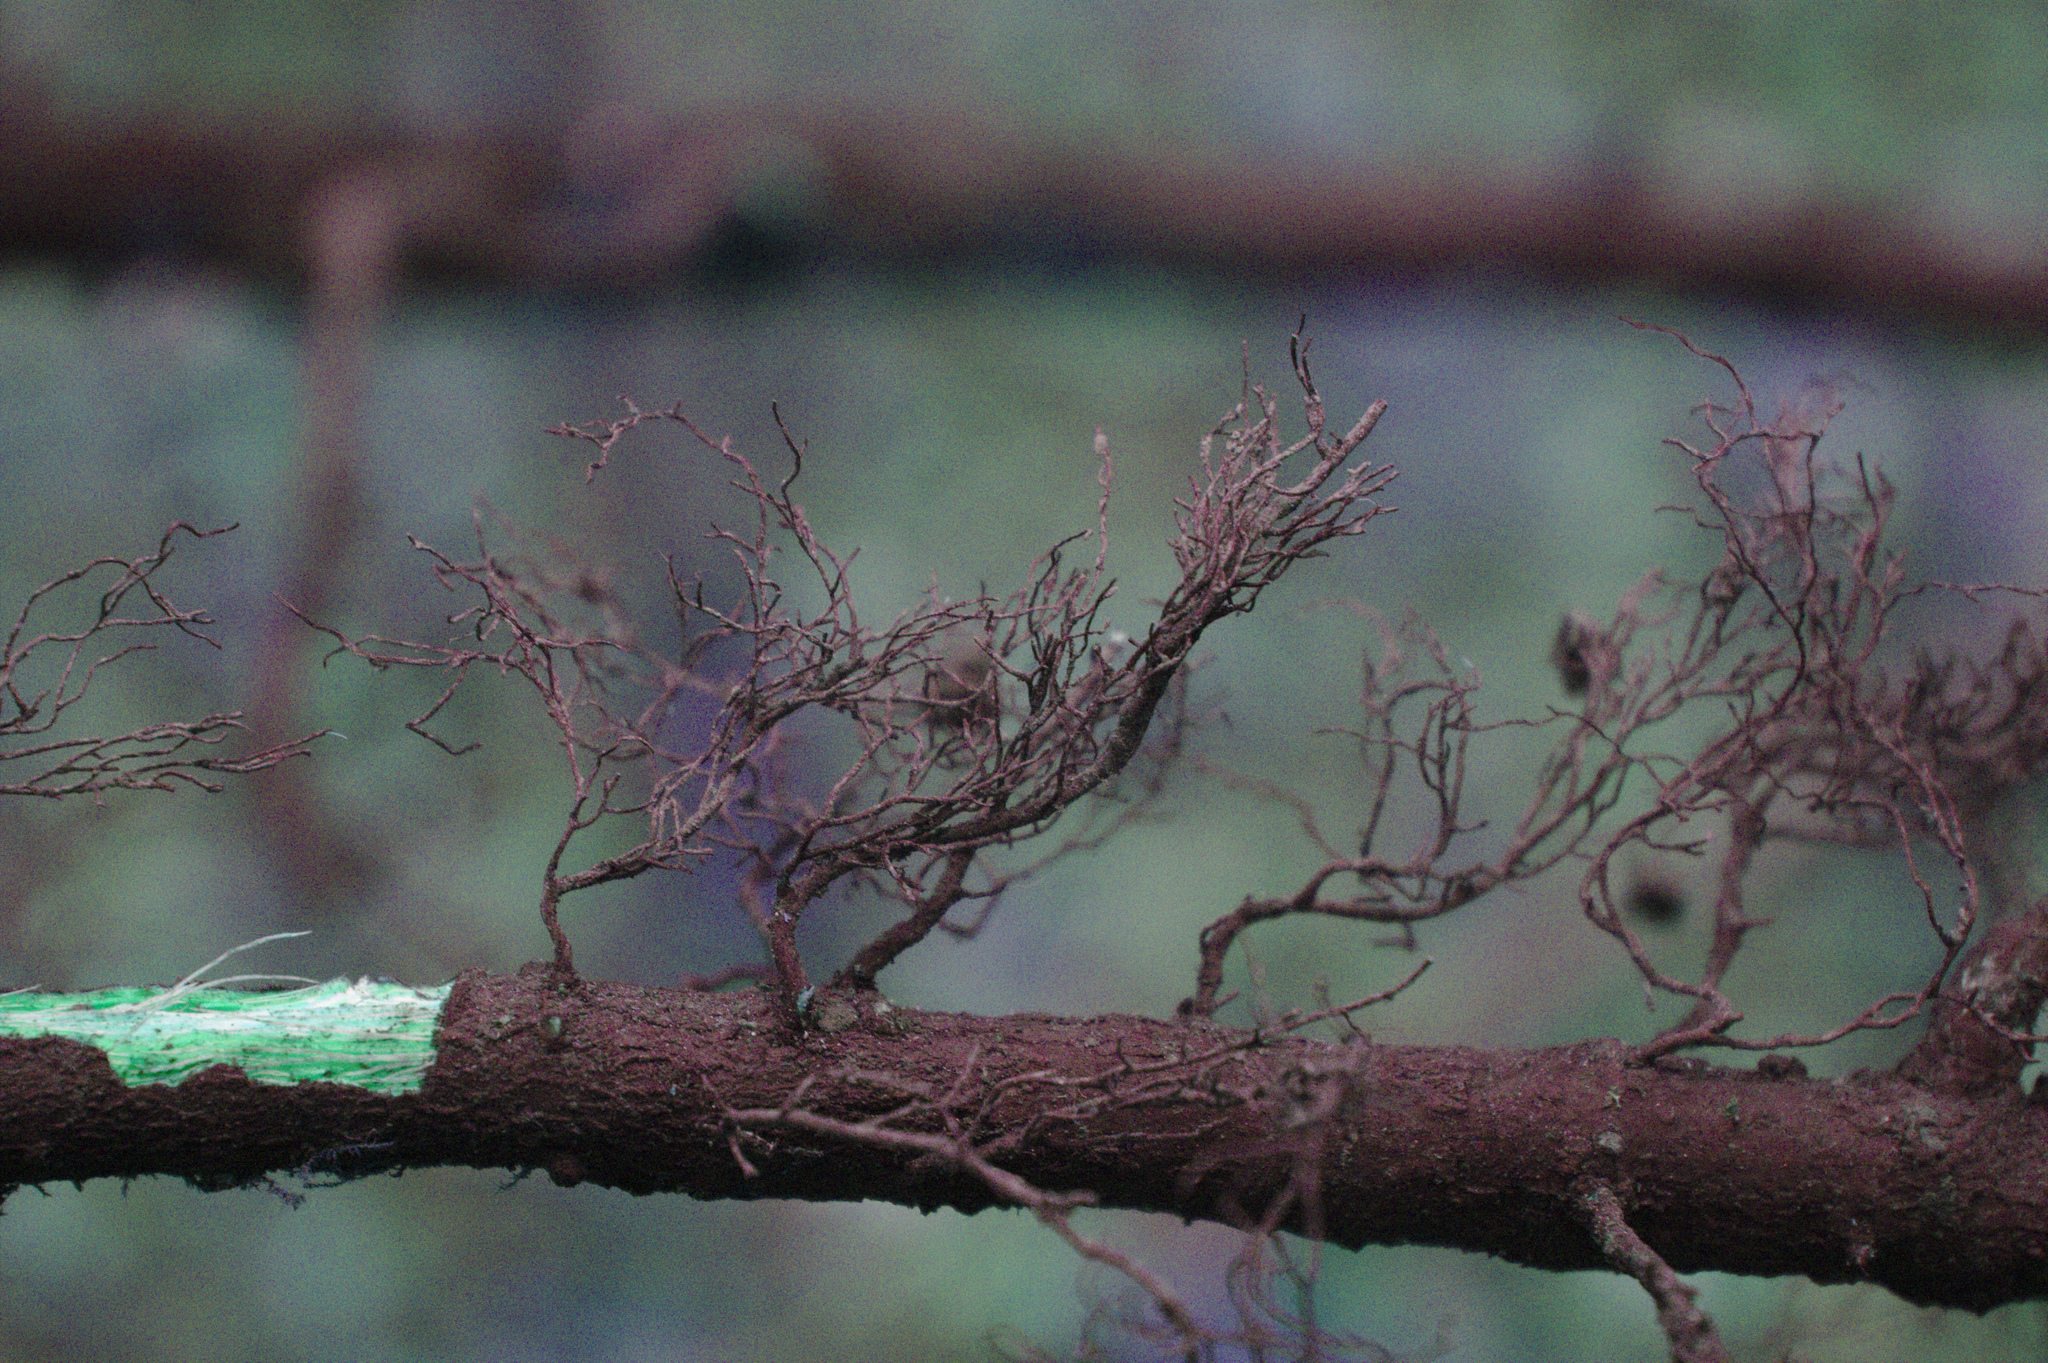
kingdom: Plantae
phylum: Tracheophyta
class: Magnoliopsida
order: Rosales
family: Rhamnaceae
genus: Rhamnus
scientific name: Rhamnus cathartica
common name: Common buckthorn
